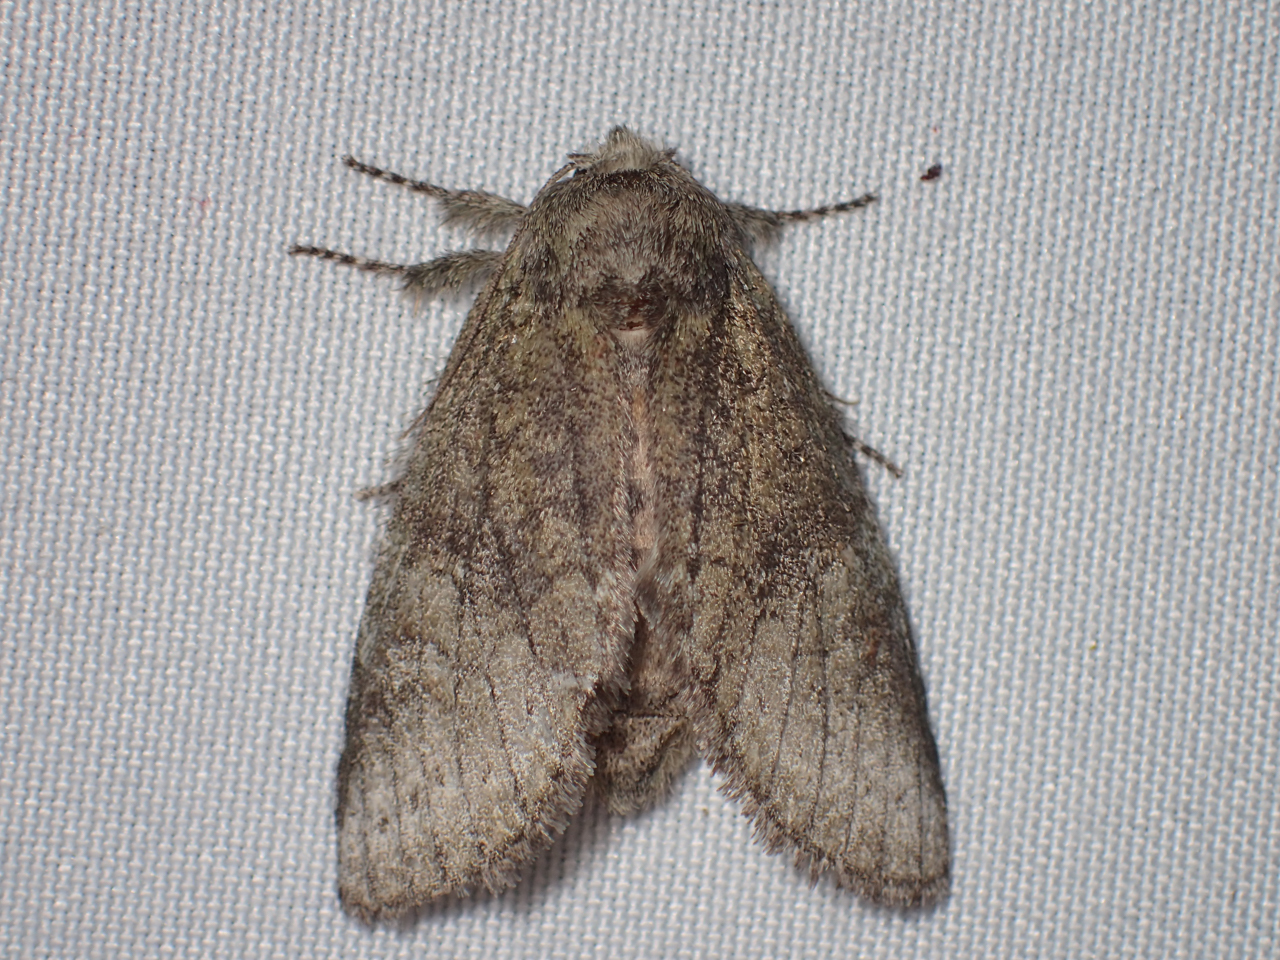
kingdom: Animalia
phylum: Arthropoda
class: Insecta
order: Lepidoptera
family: Notodontidae
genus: Disphragis
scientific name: Disphragis Cecrita guttivitta
